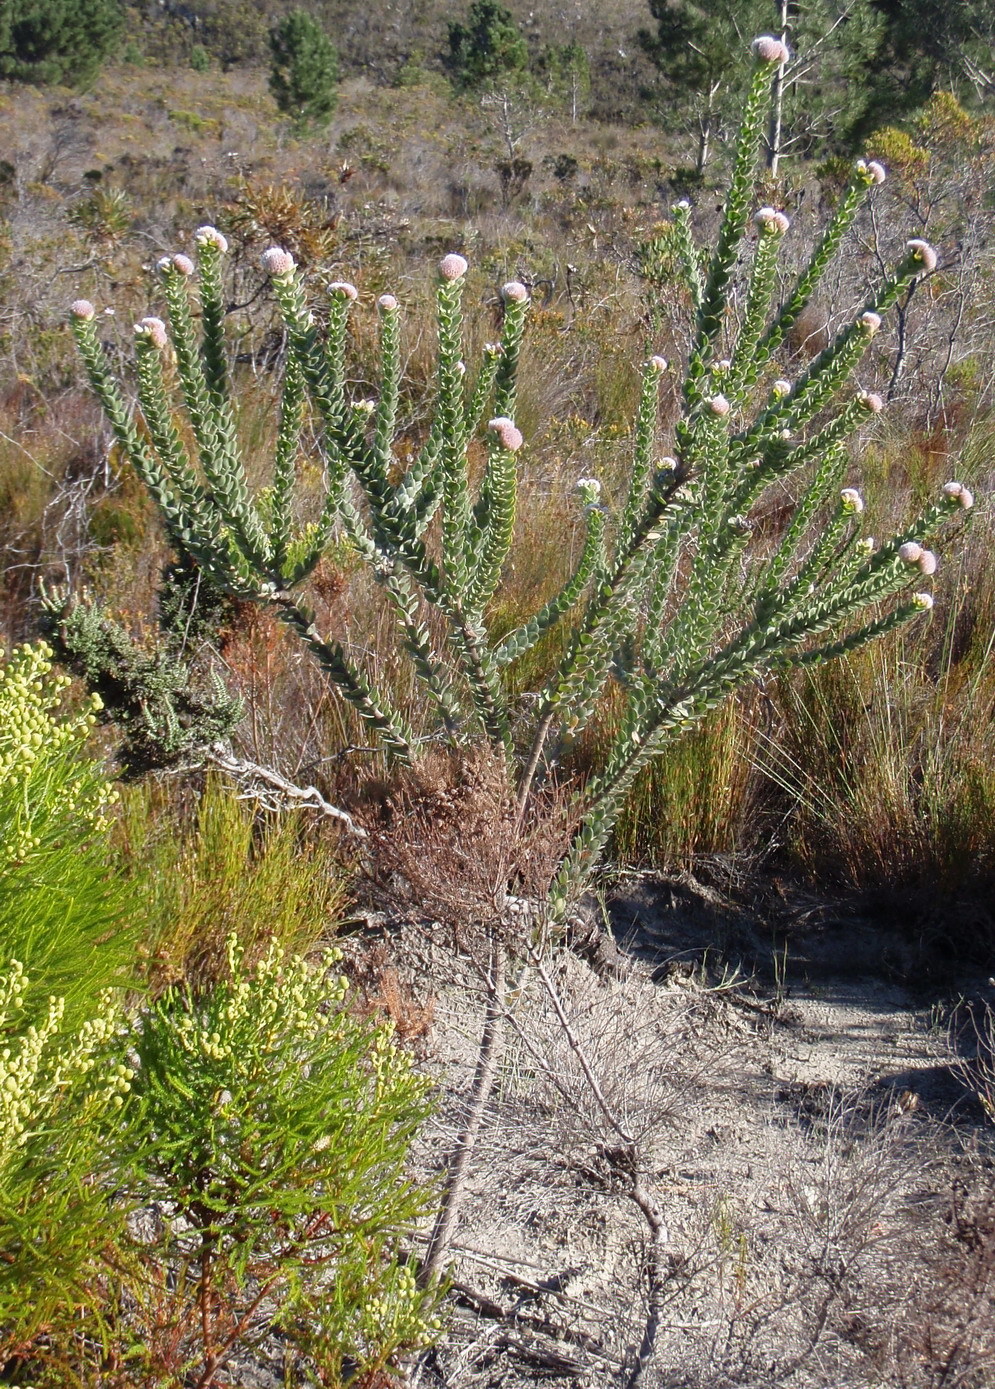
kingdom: Plantae
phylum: Tracheophyta
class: Magnoliopsida
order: Proteales
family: Proteaceae
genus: Leucospermum
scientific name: Leucospermum truncatulum
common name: Oval-leaf pincushion
